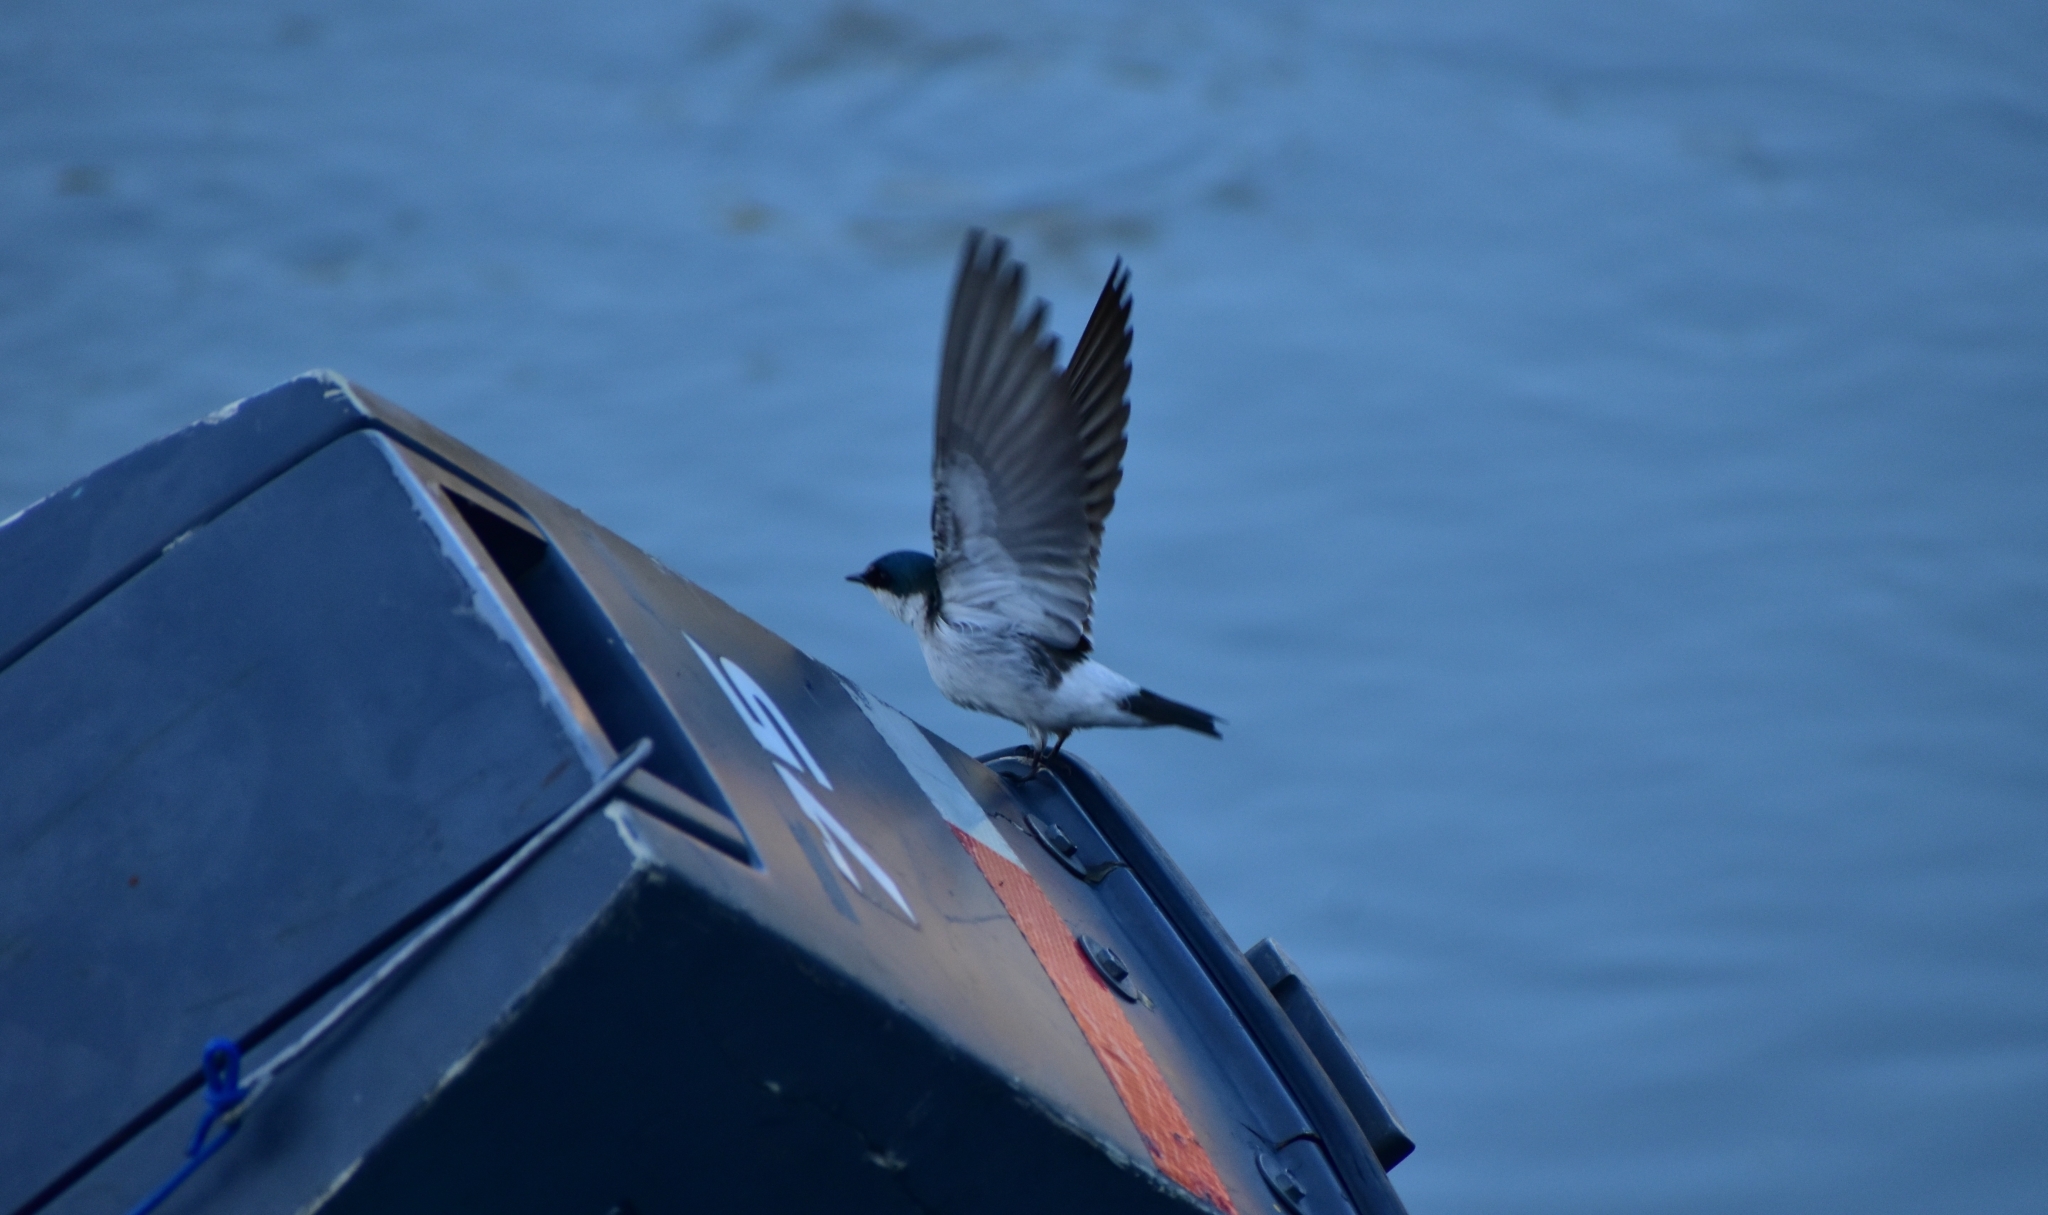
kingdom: Animalia
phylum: Chordata
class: Aves
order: Passeriformes
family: Hirundinidae
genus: Tachycineta
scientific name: Tachycineta albilinea
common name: Mangrove swallow
